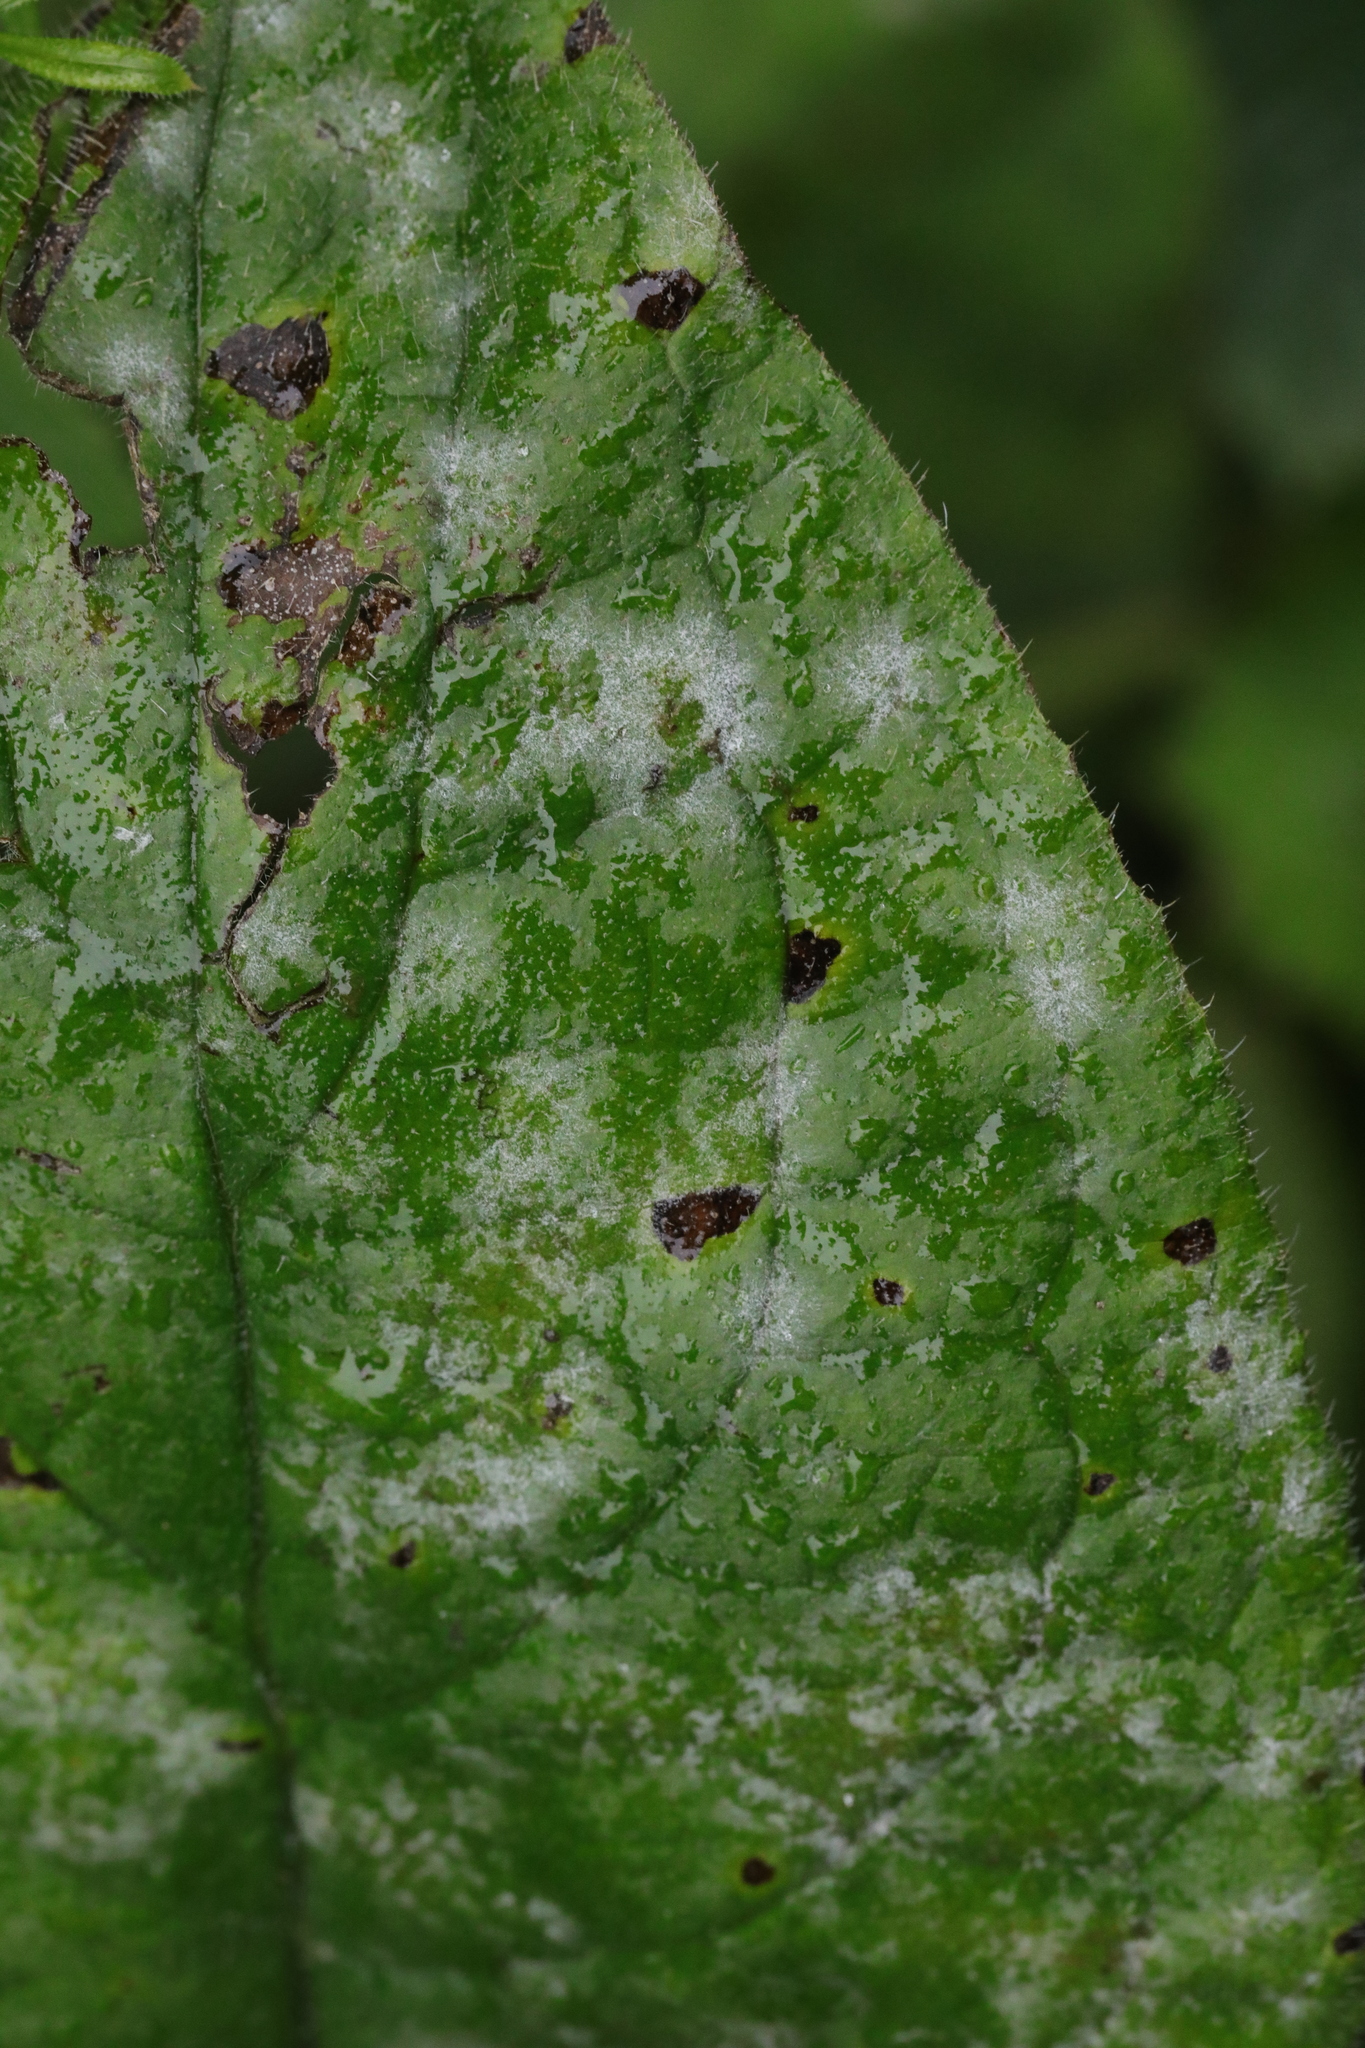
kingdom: Fungi
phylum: Ascomycota
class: Leotiomycetes
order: Helotiales
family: Erysiphaceae
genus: Erysiphe
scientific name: Erysiphe convolvuli
